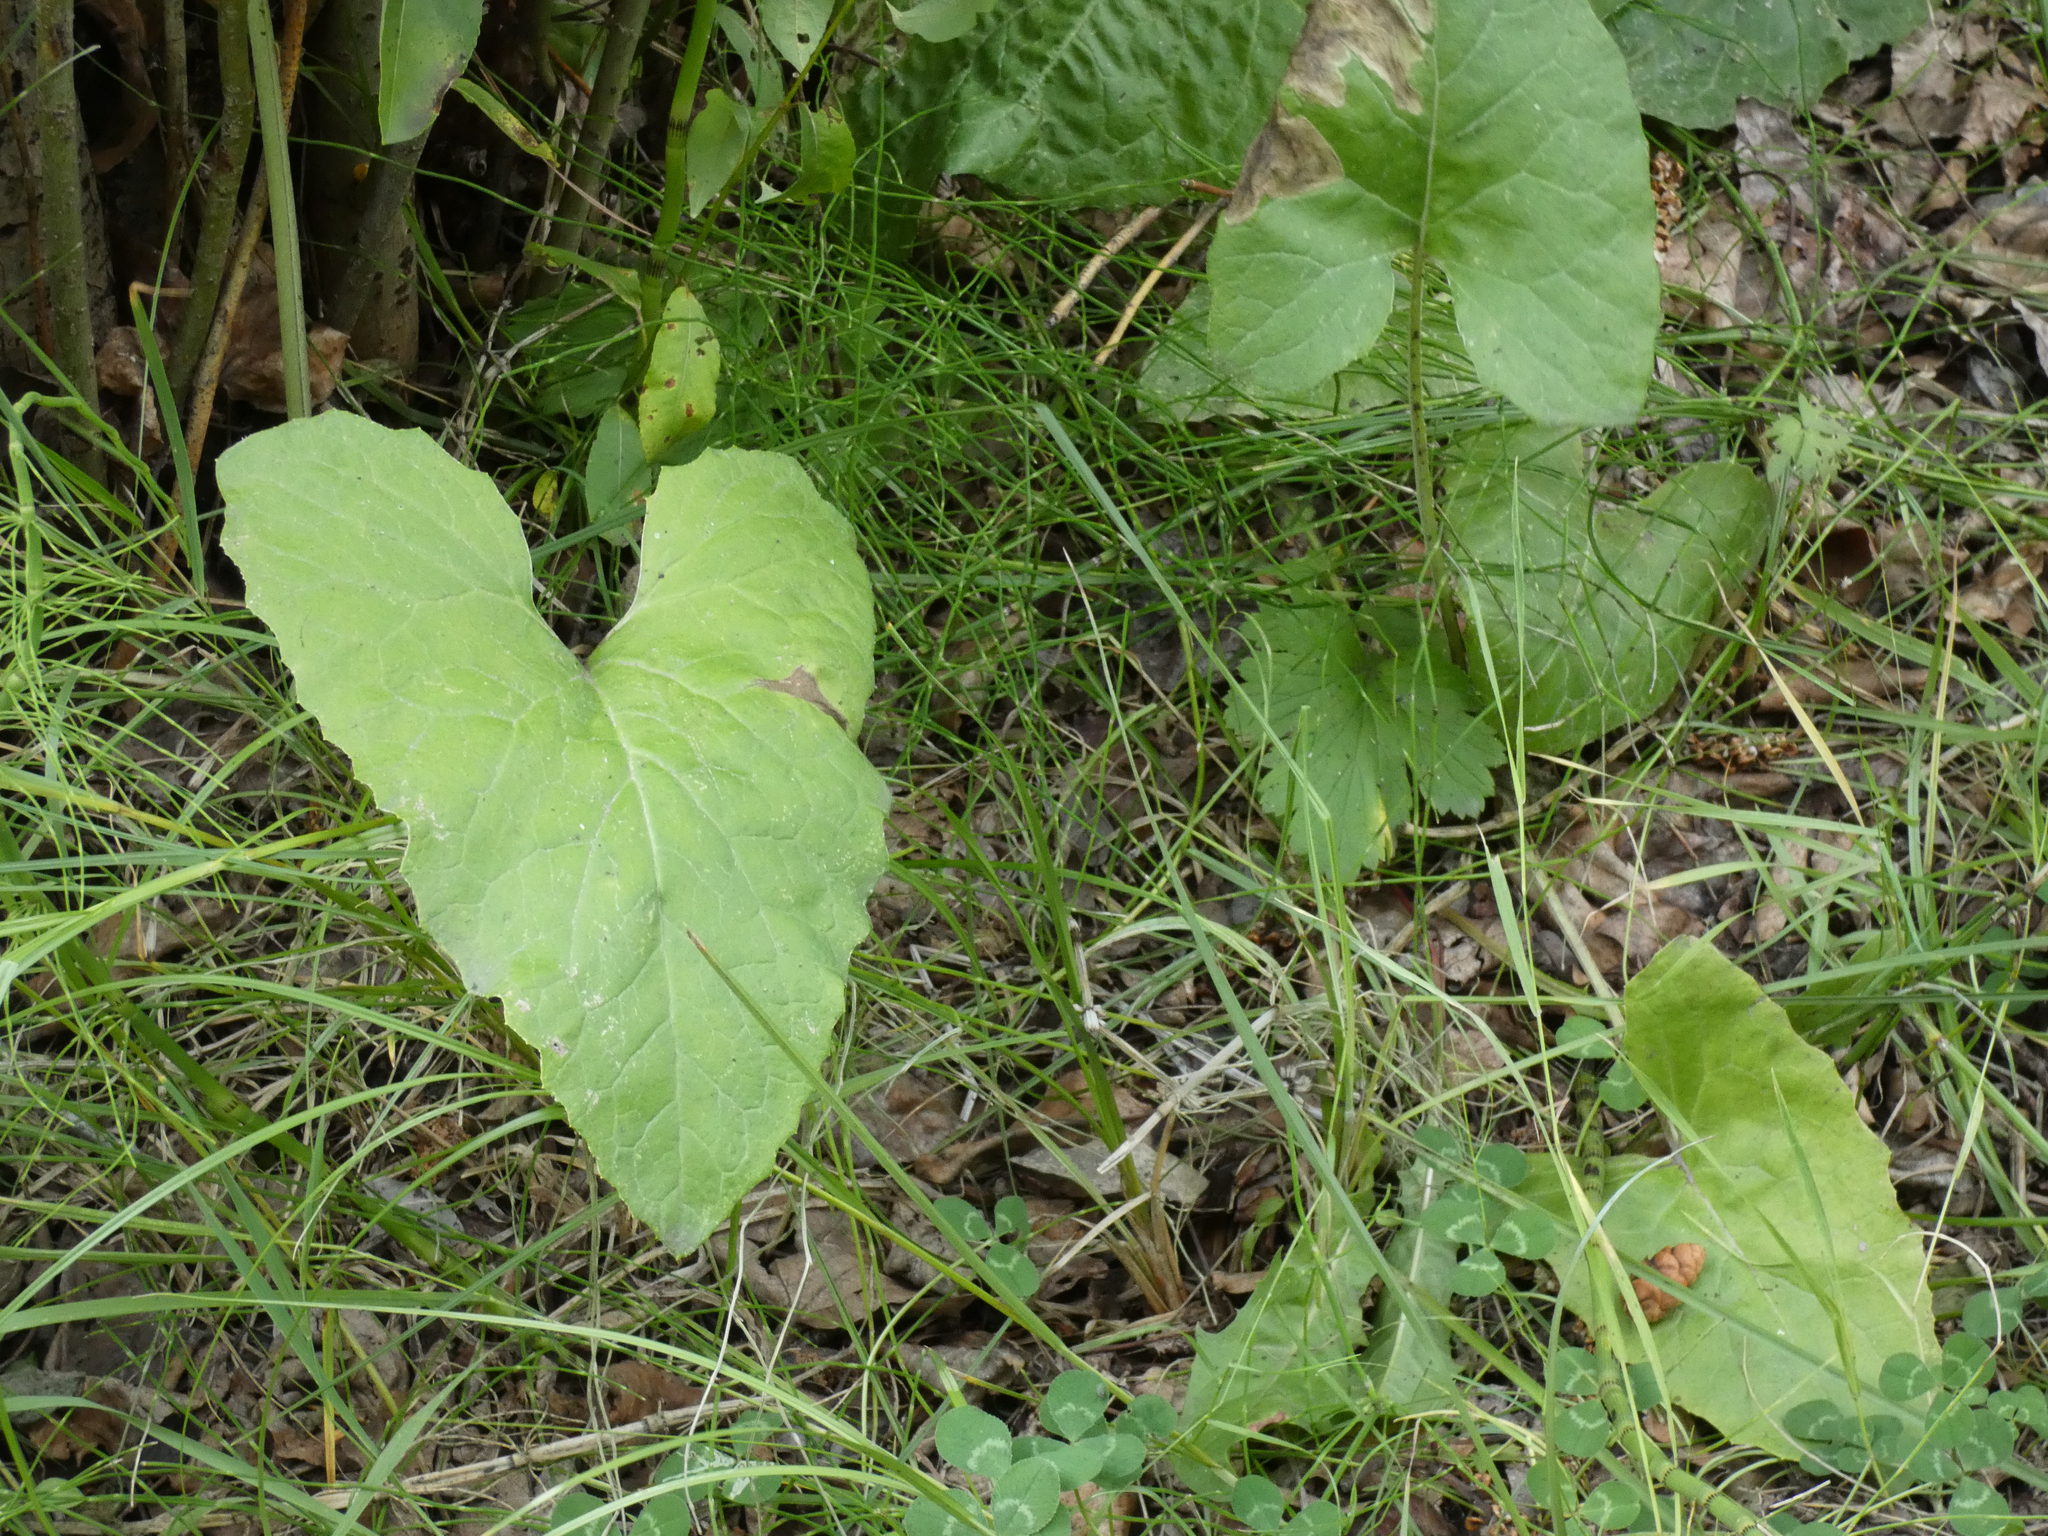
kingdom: Plantae
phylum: Tracheophyta
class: Magnoliopsida
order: Asterales
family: Asteraceae
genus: Petasites
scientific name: Petasites frigidus
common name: Arctic butterbur
